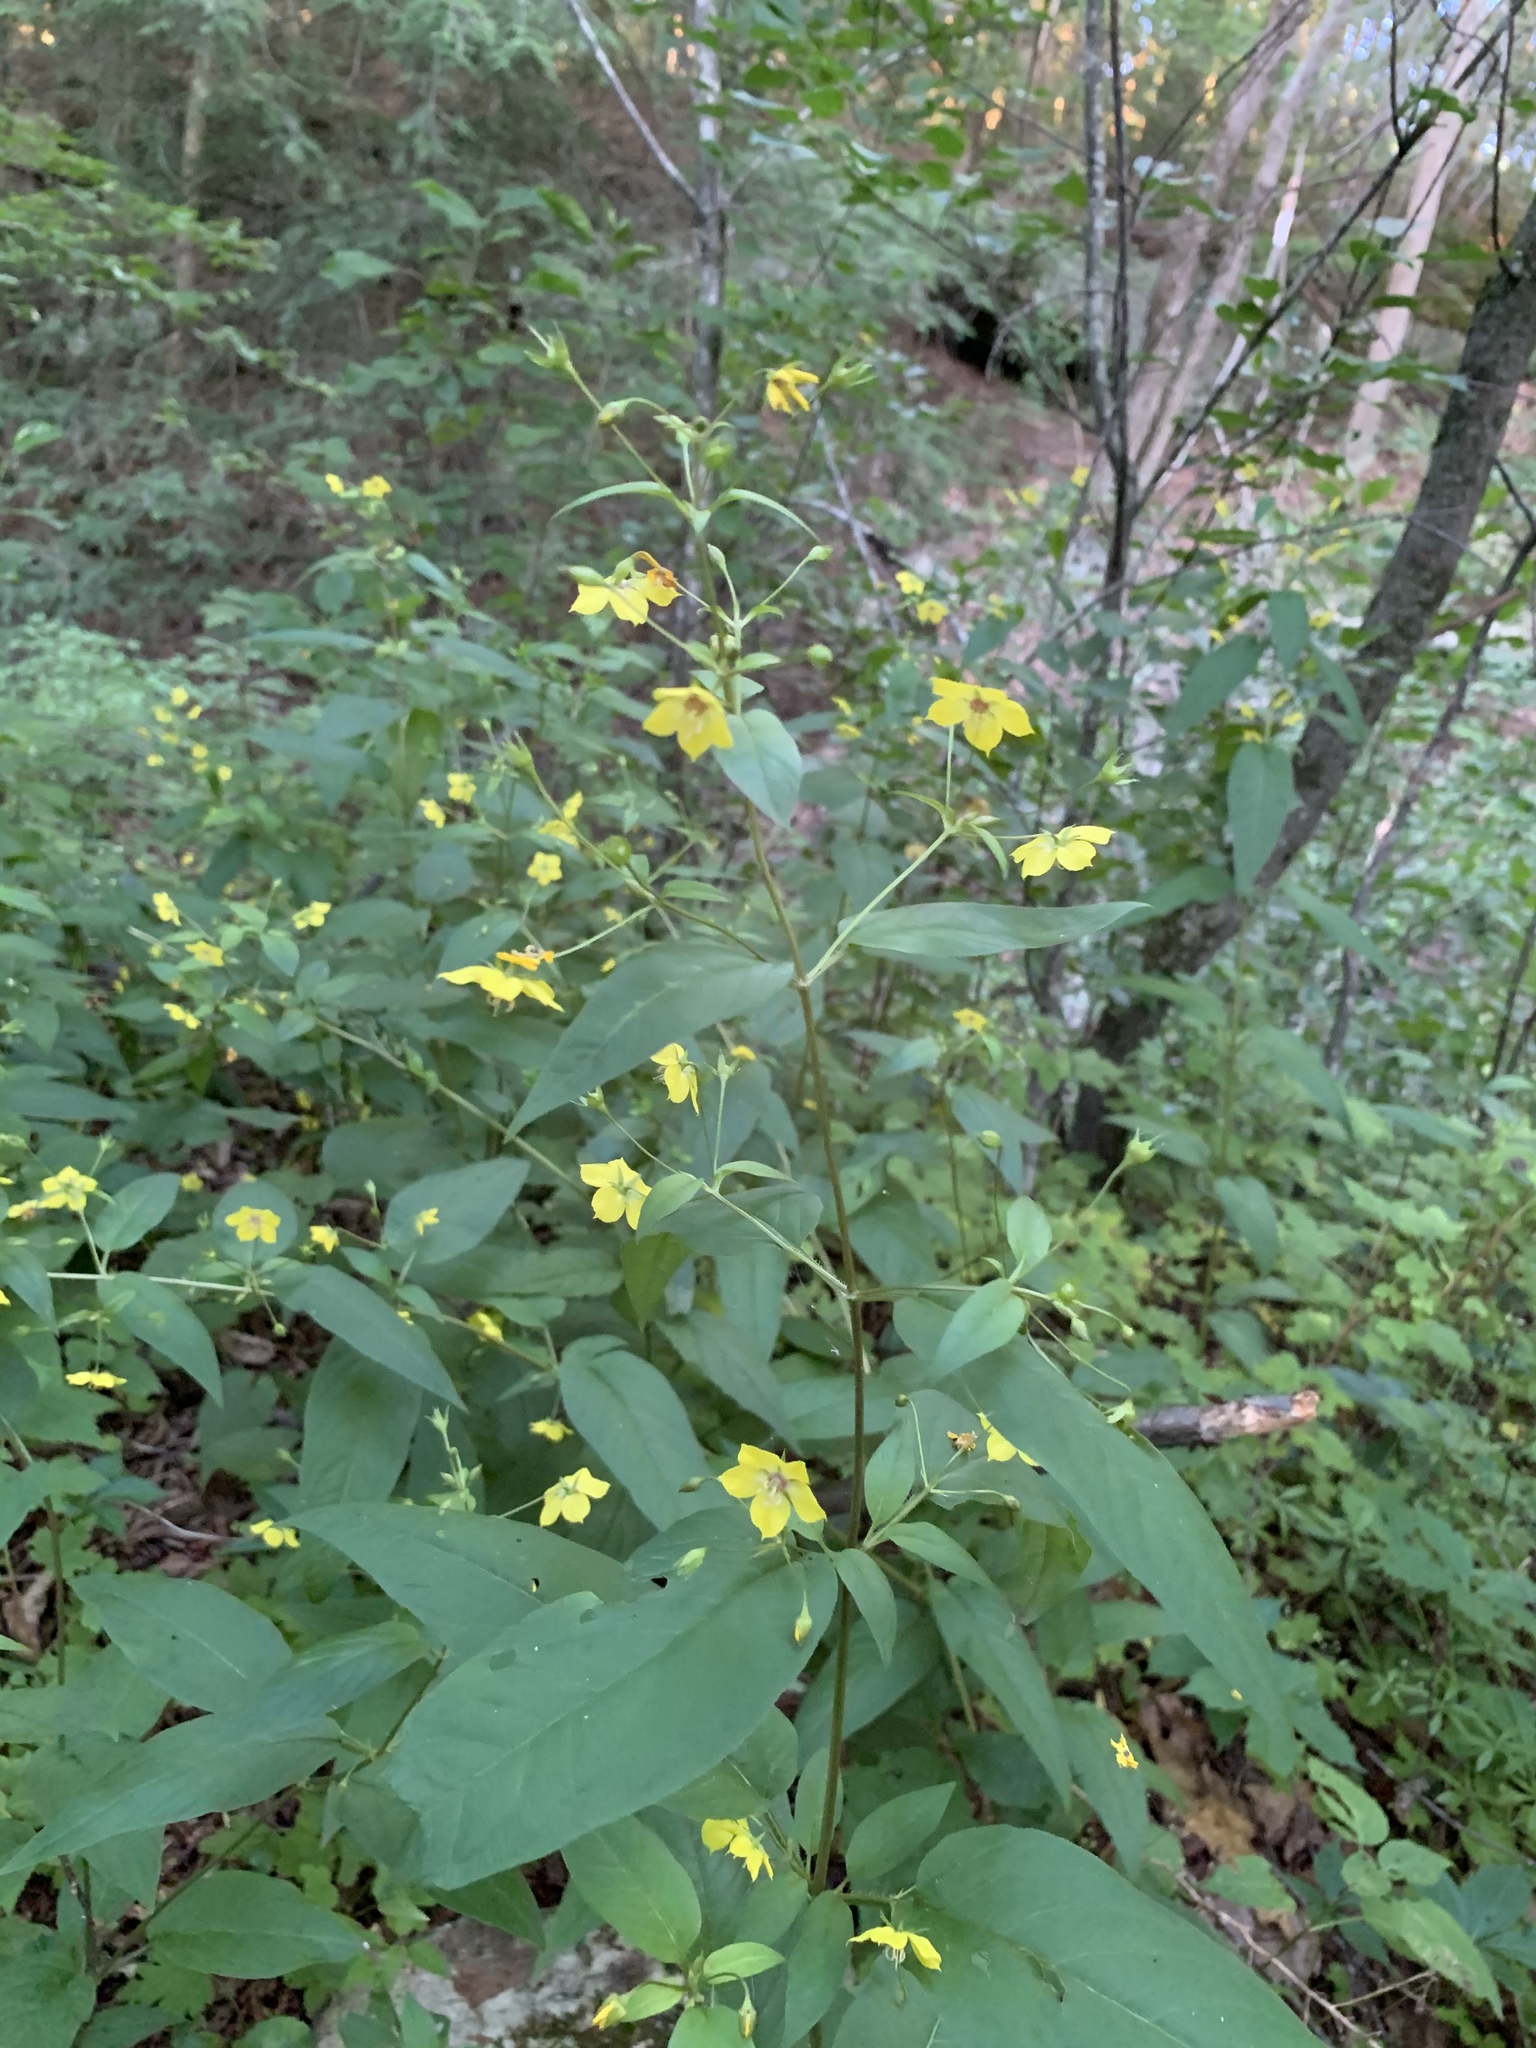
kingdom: Plantae
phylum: Tracheophyta
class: Magnoliopsida
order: Ericales
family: Primulaceae
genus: Lysimachia
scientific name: Lysimachia ciliata
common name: Fringed loosestrife
